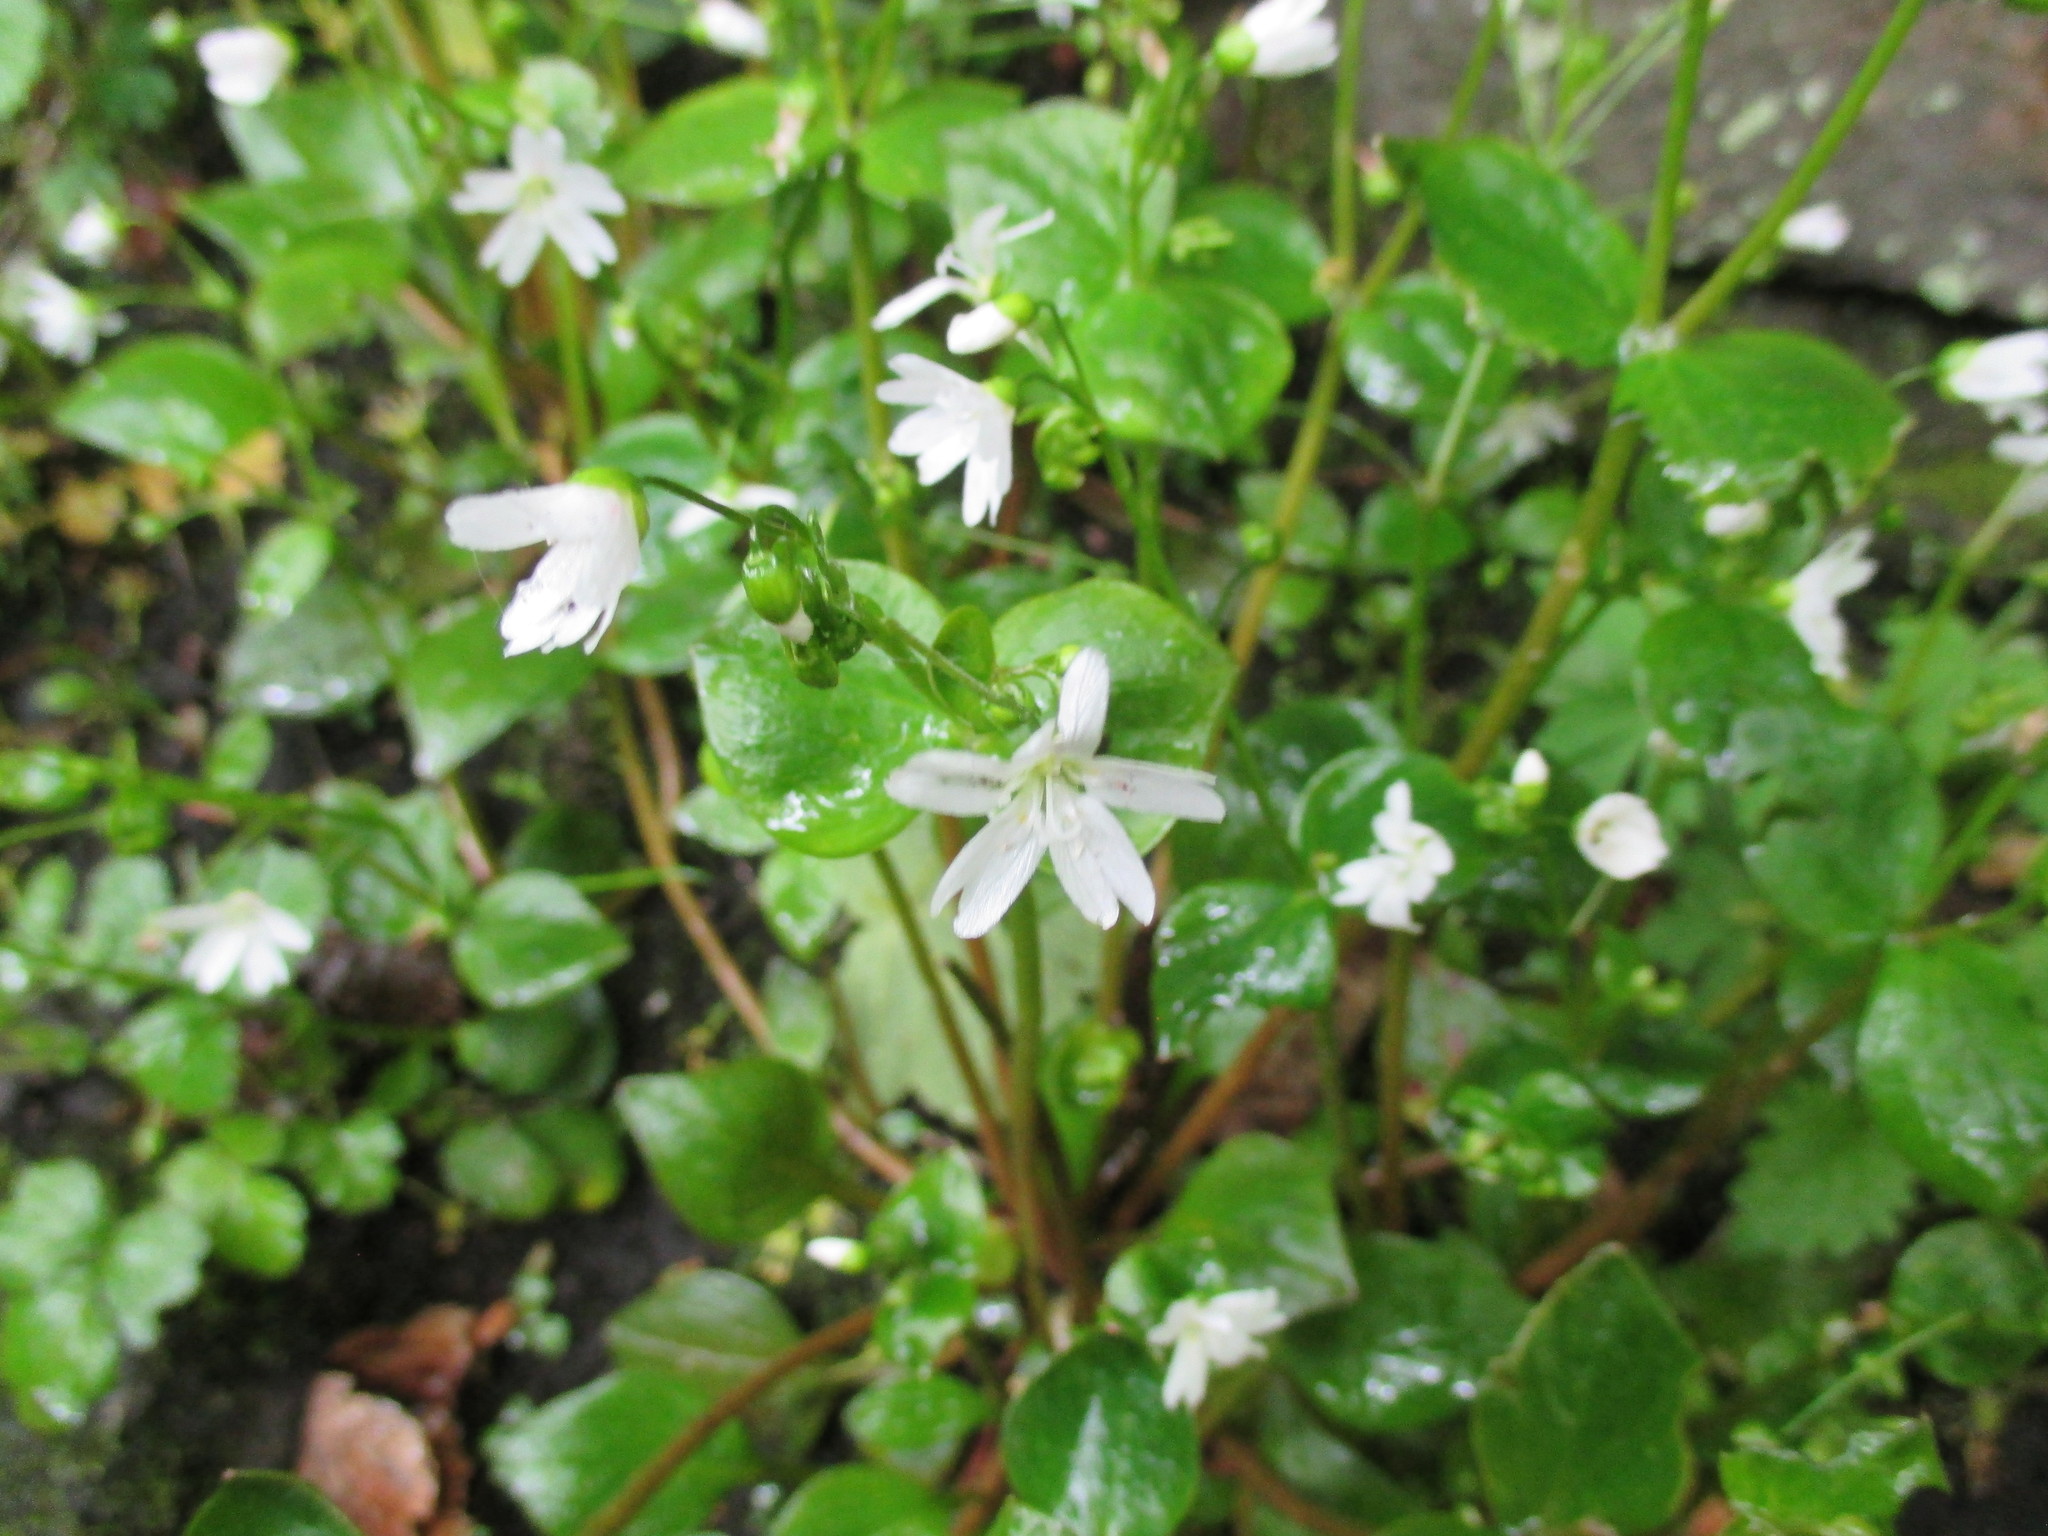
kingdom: Plantae
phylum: Tracheophyta
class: Magnoliopsida
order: Caryophyllales
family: Montiaceae
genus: Claytonia
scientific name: Claytonia sibirica
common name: Pink purslane
